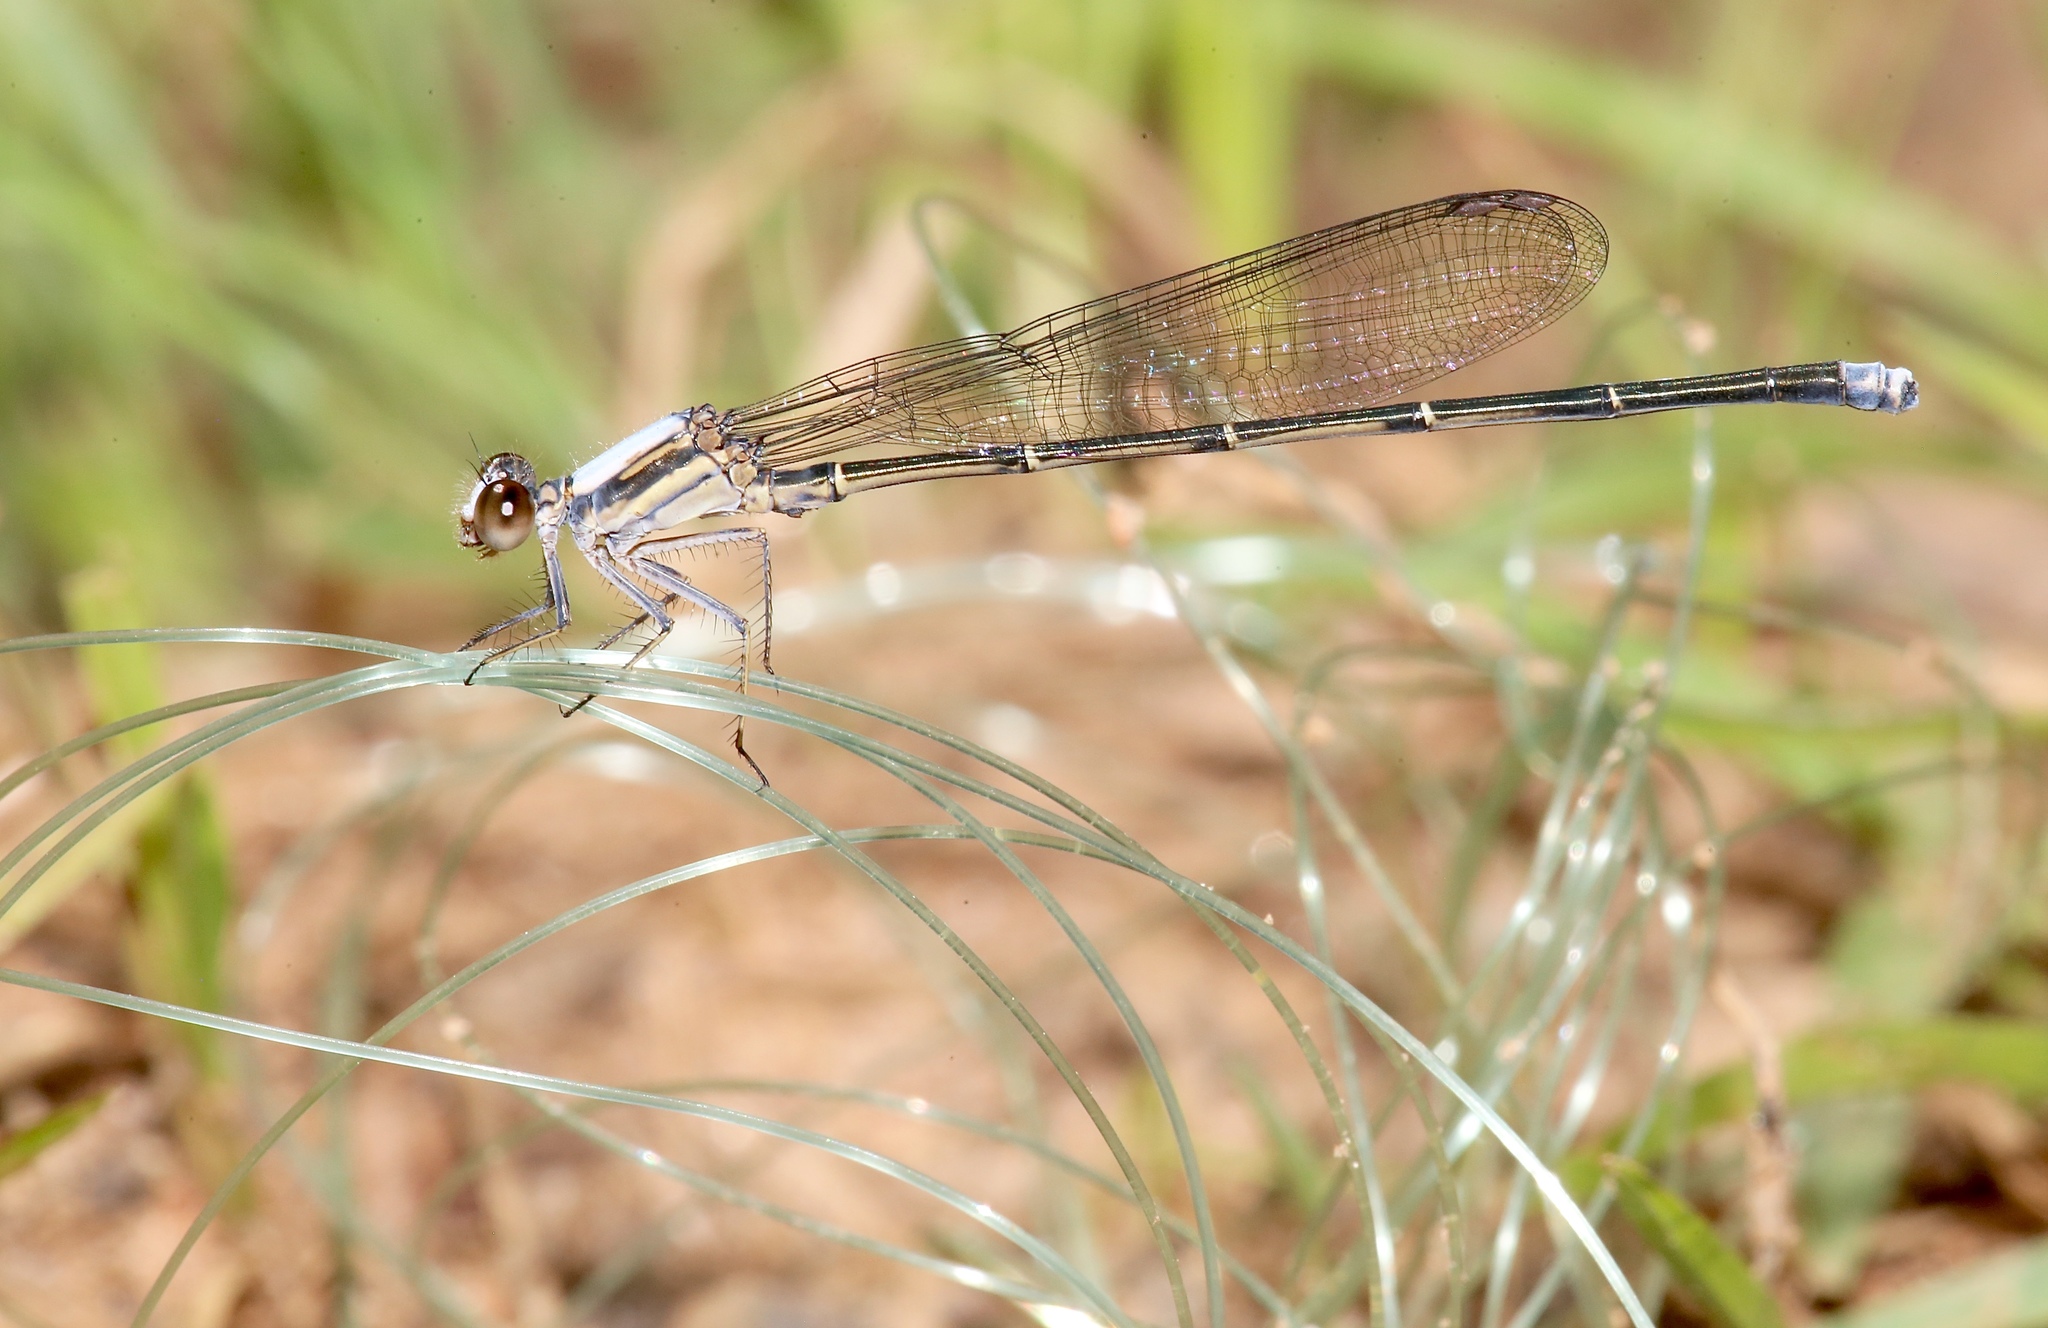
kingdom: Animalia
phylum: Arthropoda
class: Insecta
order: Odonata
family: Coenagrionidae
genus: Argia
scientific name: Argia moesta
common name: Powdered dancer
